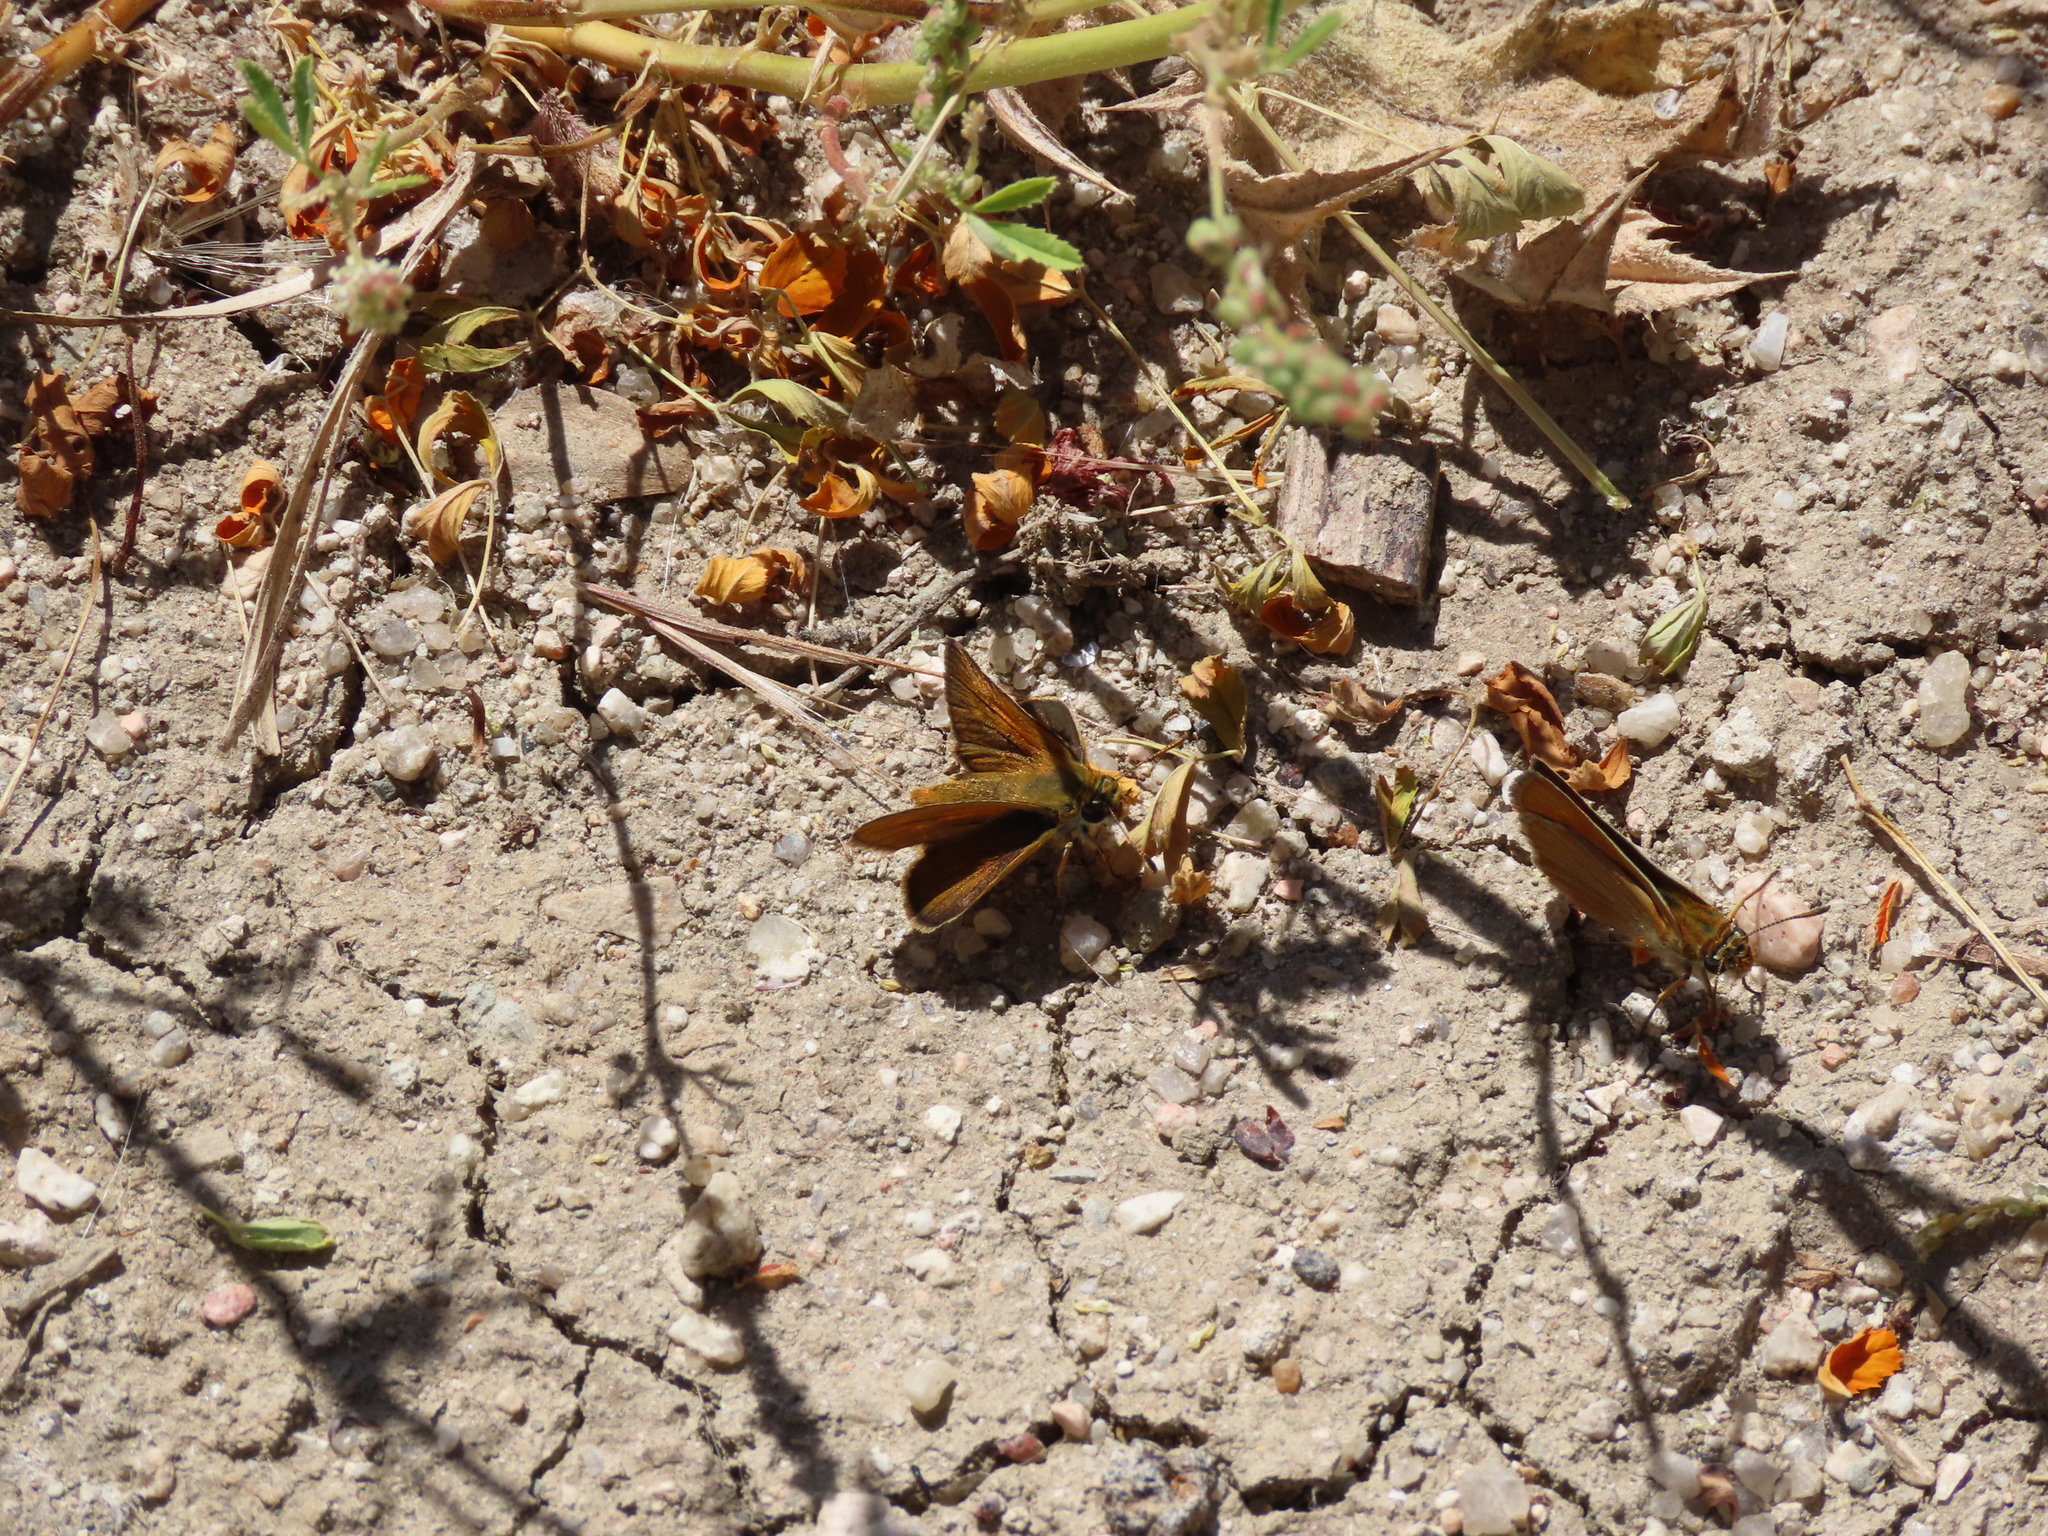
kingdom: Animalia
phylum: Arthropoda
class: Insecta
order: Lepidoptera
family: Hesperiidae
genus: Thymelicus
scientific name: Thymelicus acteon
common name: Lulworth skipper
